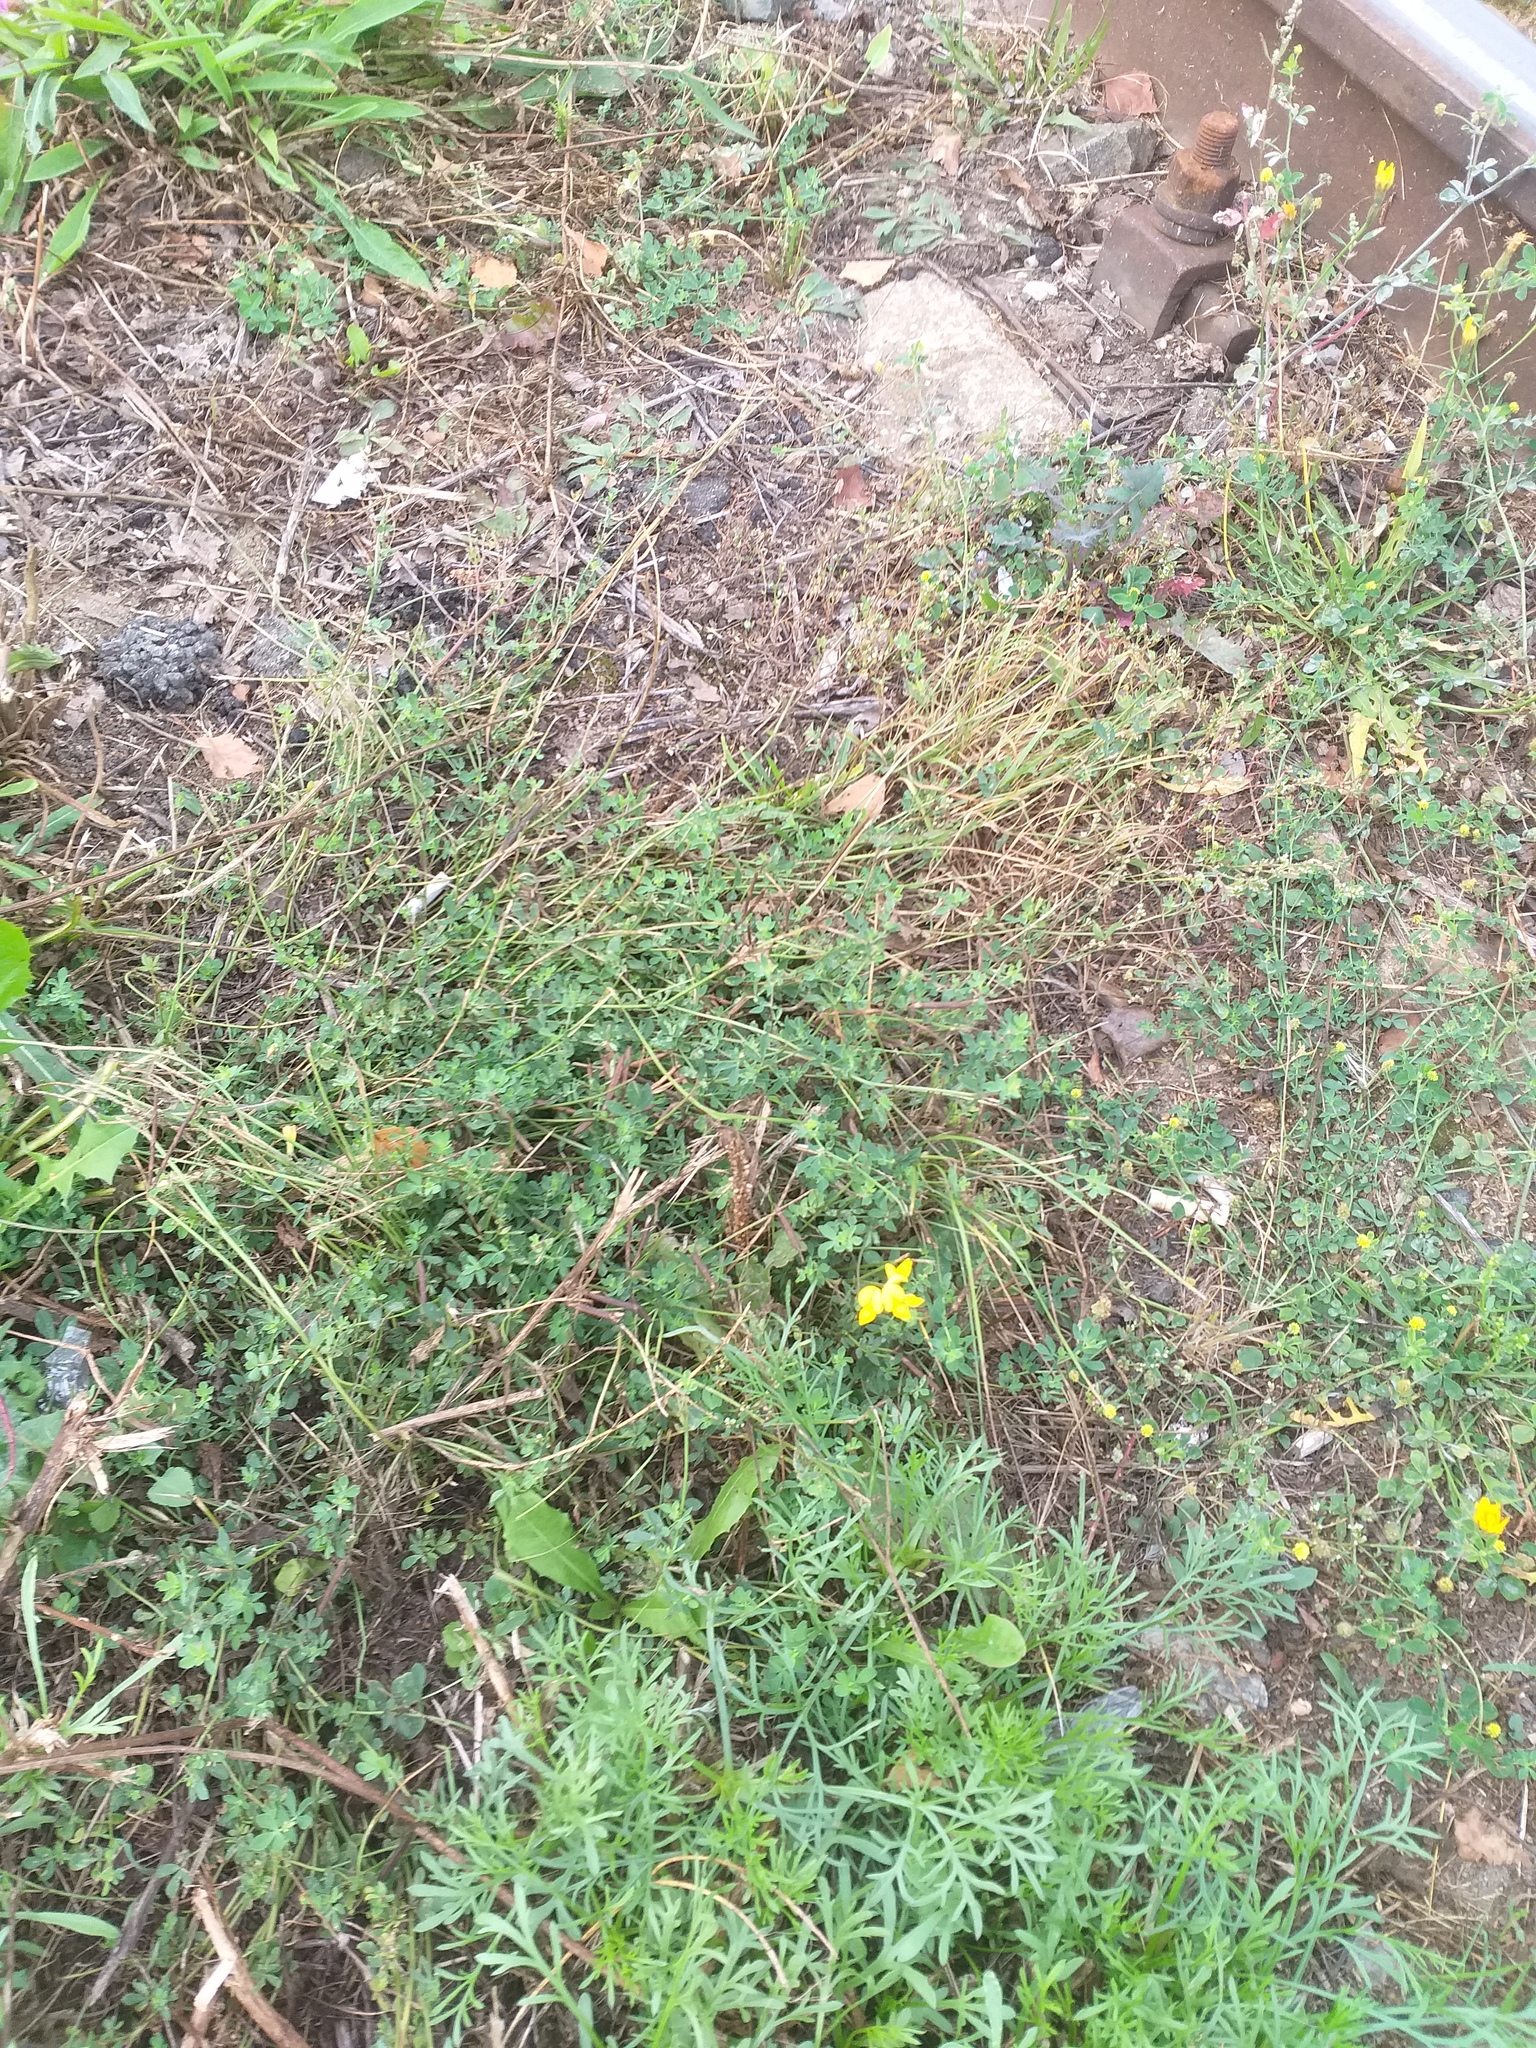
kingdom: Plantae
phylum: Tracheophyta
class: Magnoliopsida
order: Fabales
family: Fabaceae
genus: Lotus
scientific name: Lotus corniculatus
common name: Common bird's-foot-trefoil
